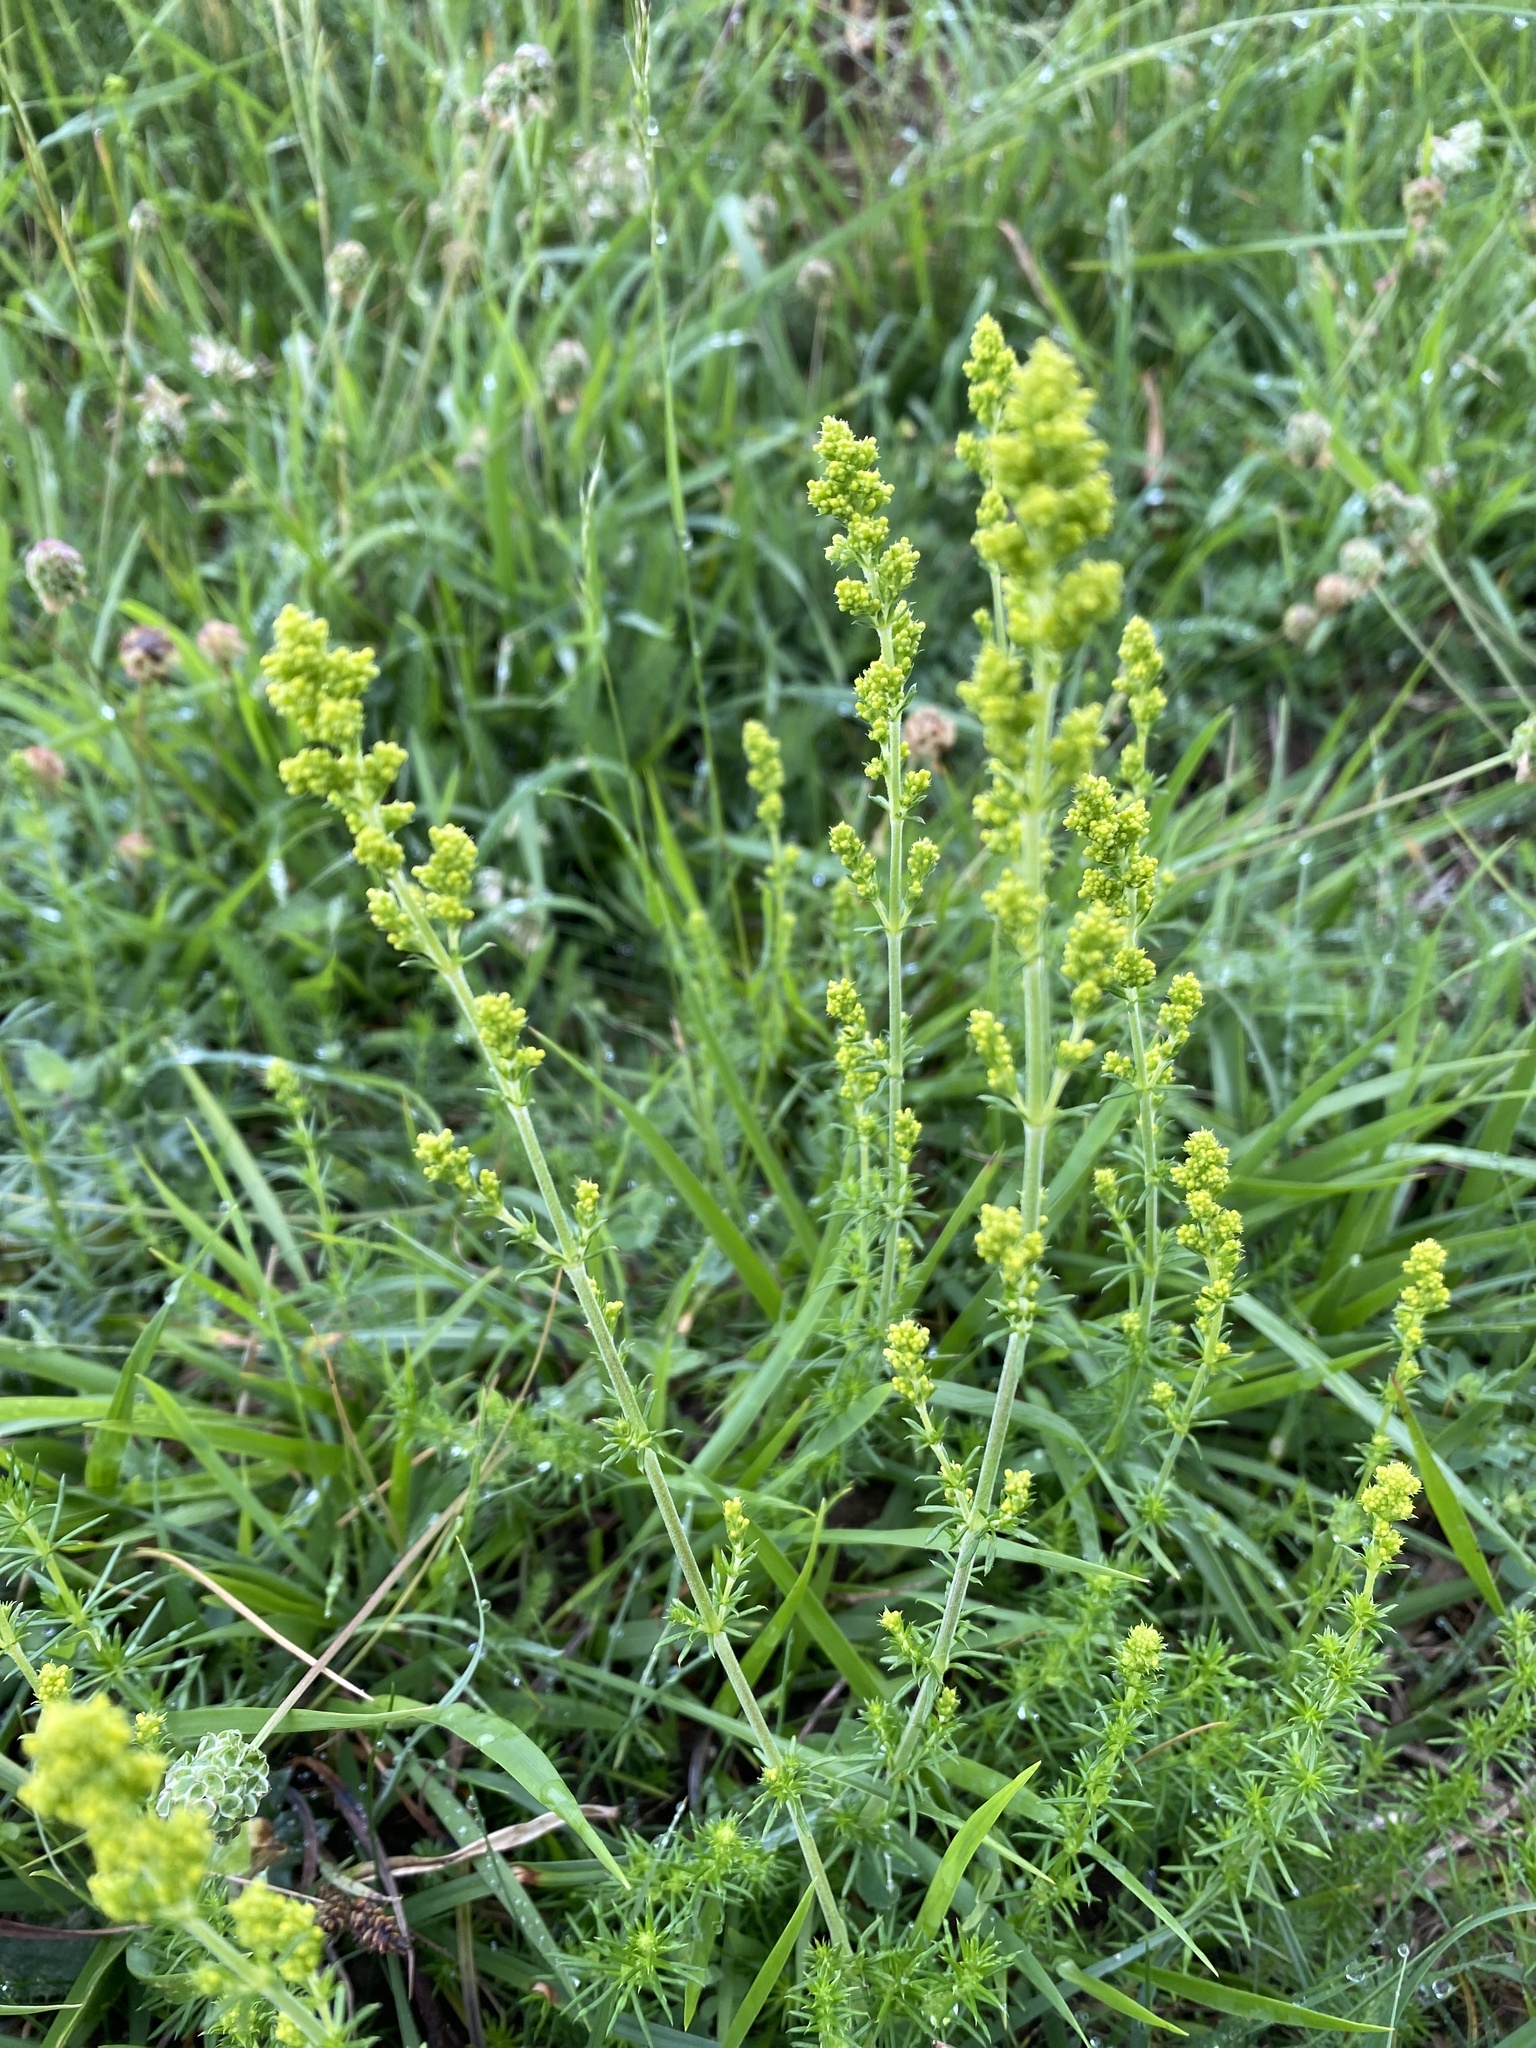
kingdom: Plantae
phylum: Tracheophyta
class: Magnoliopsida
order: Gentianales
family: Rubiaceae
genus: Galium
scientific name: Galium verum
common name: Lady's bedstraw
